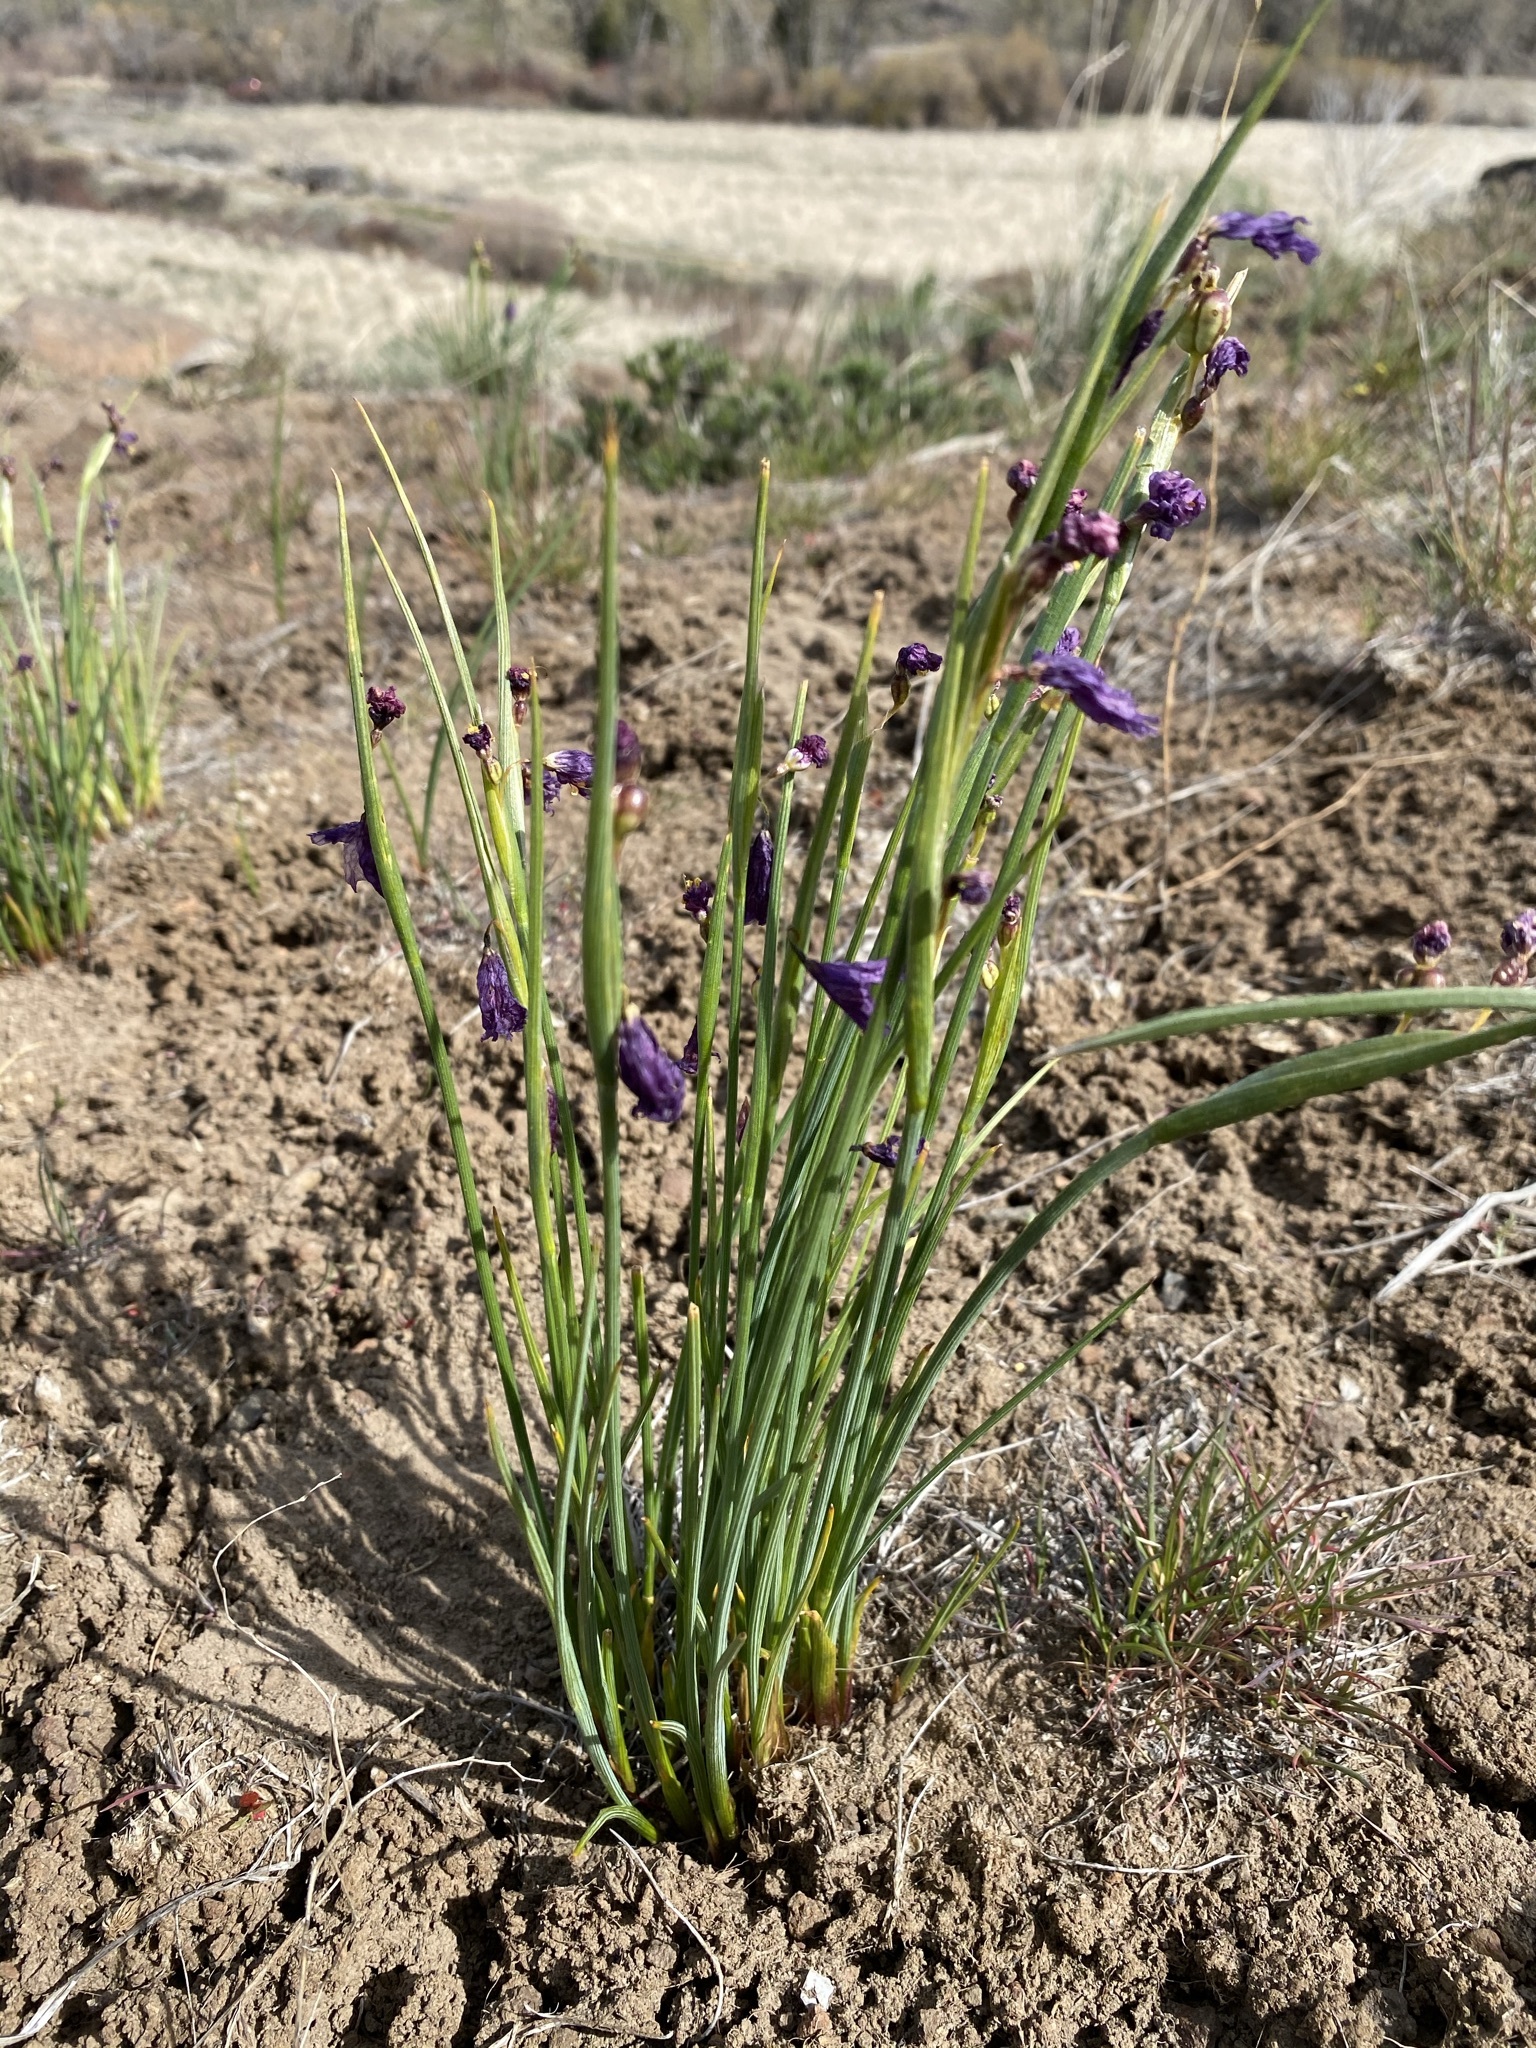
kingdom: Plantae
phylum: Tracheophyta
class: Liliopsida
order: Asparagales
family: Iridaceae
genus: Olsynium
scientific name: Olsynium douglasii
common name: Douglas' grasswidow
